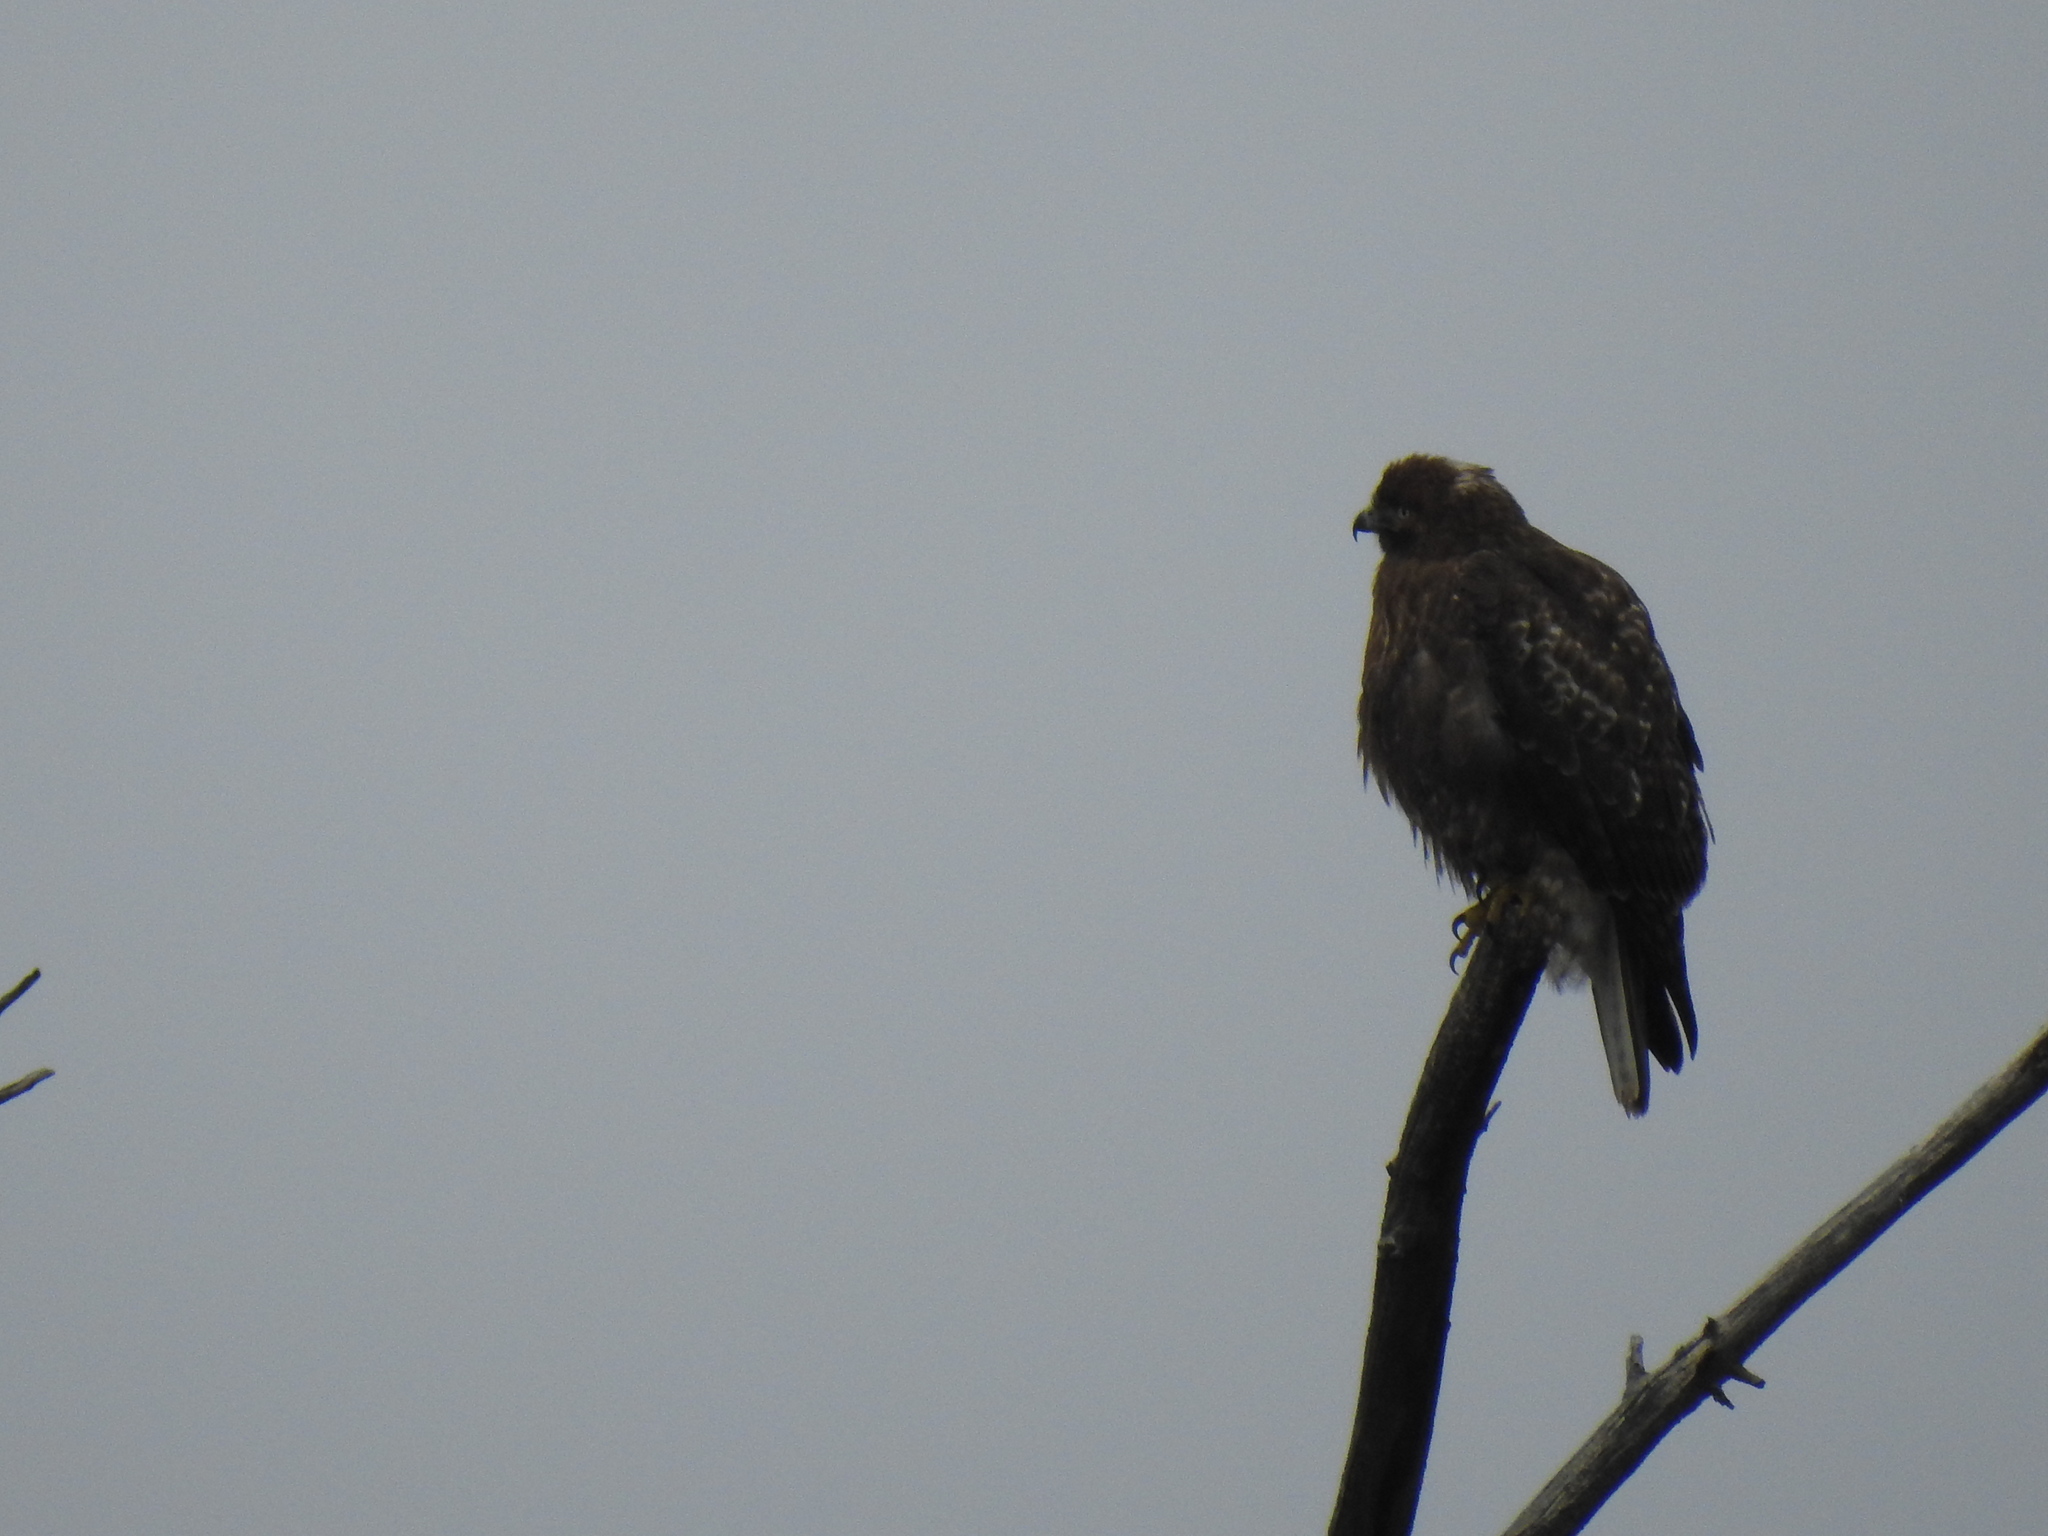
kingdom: Animalia
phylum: Chordata
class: Aves
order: Accipitriformes
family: Accipitridae
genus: Buteo
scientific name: Buteo jamaicensis
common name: Red-tailed hawk
